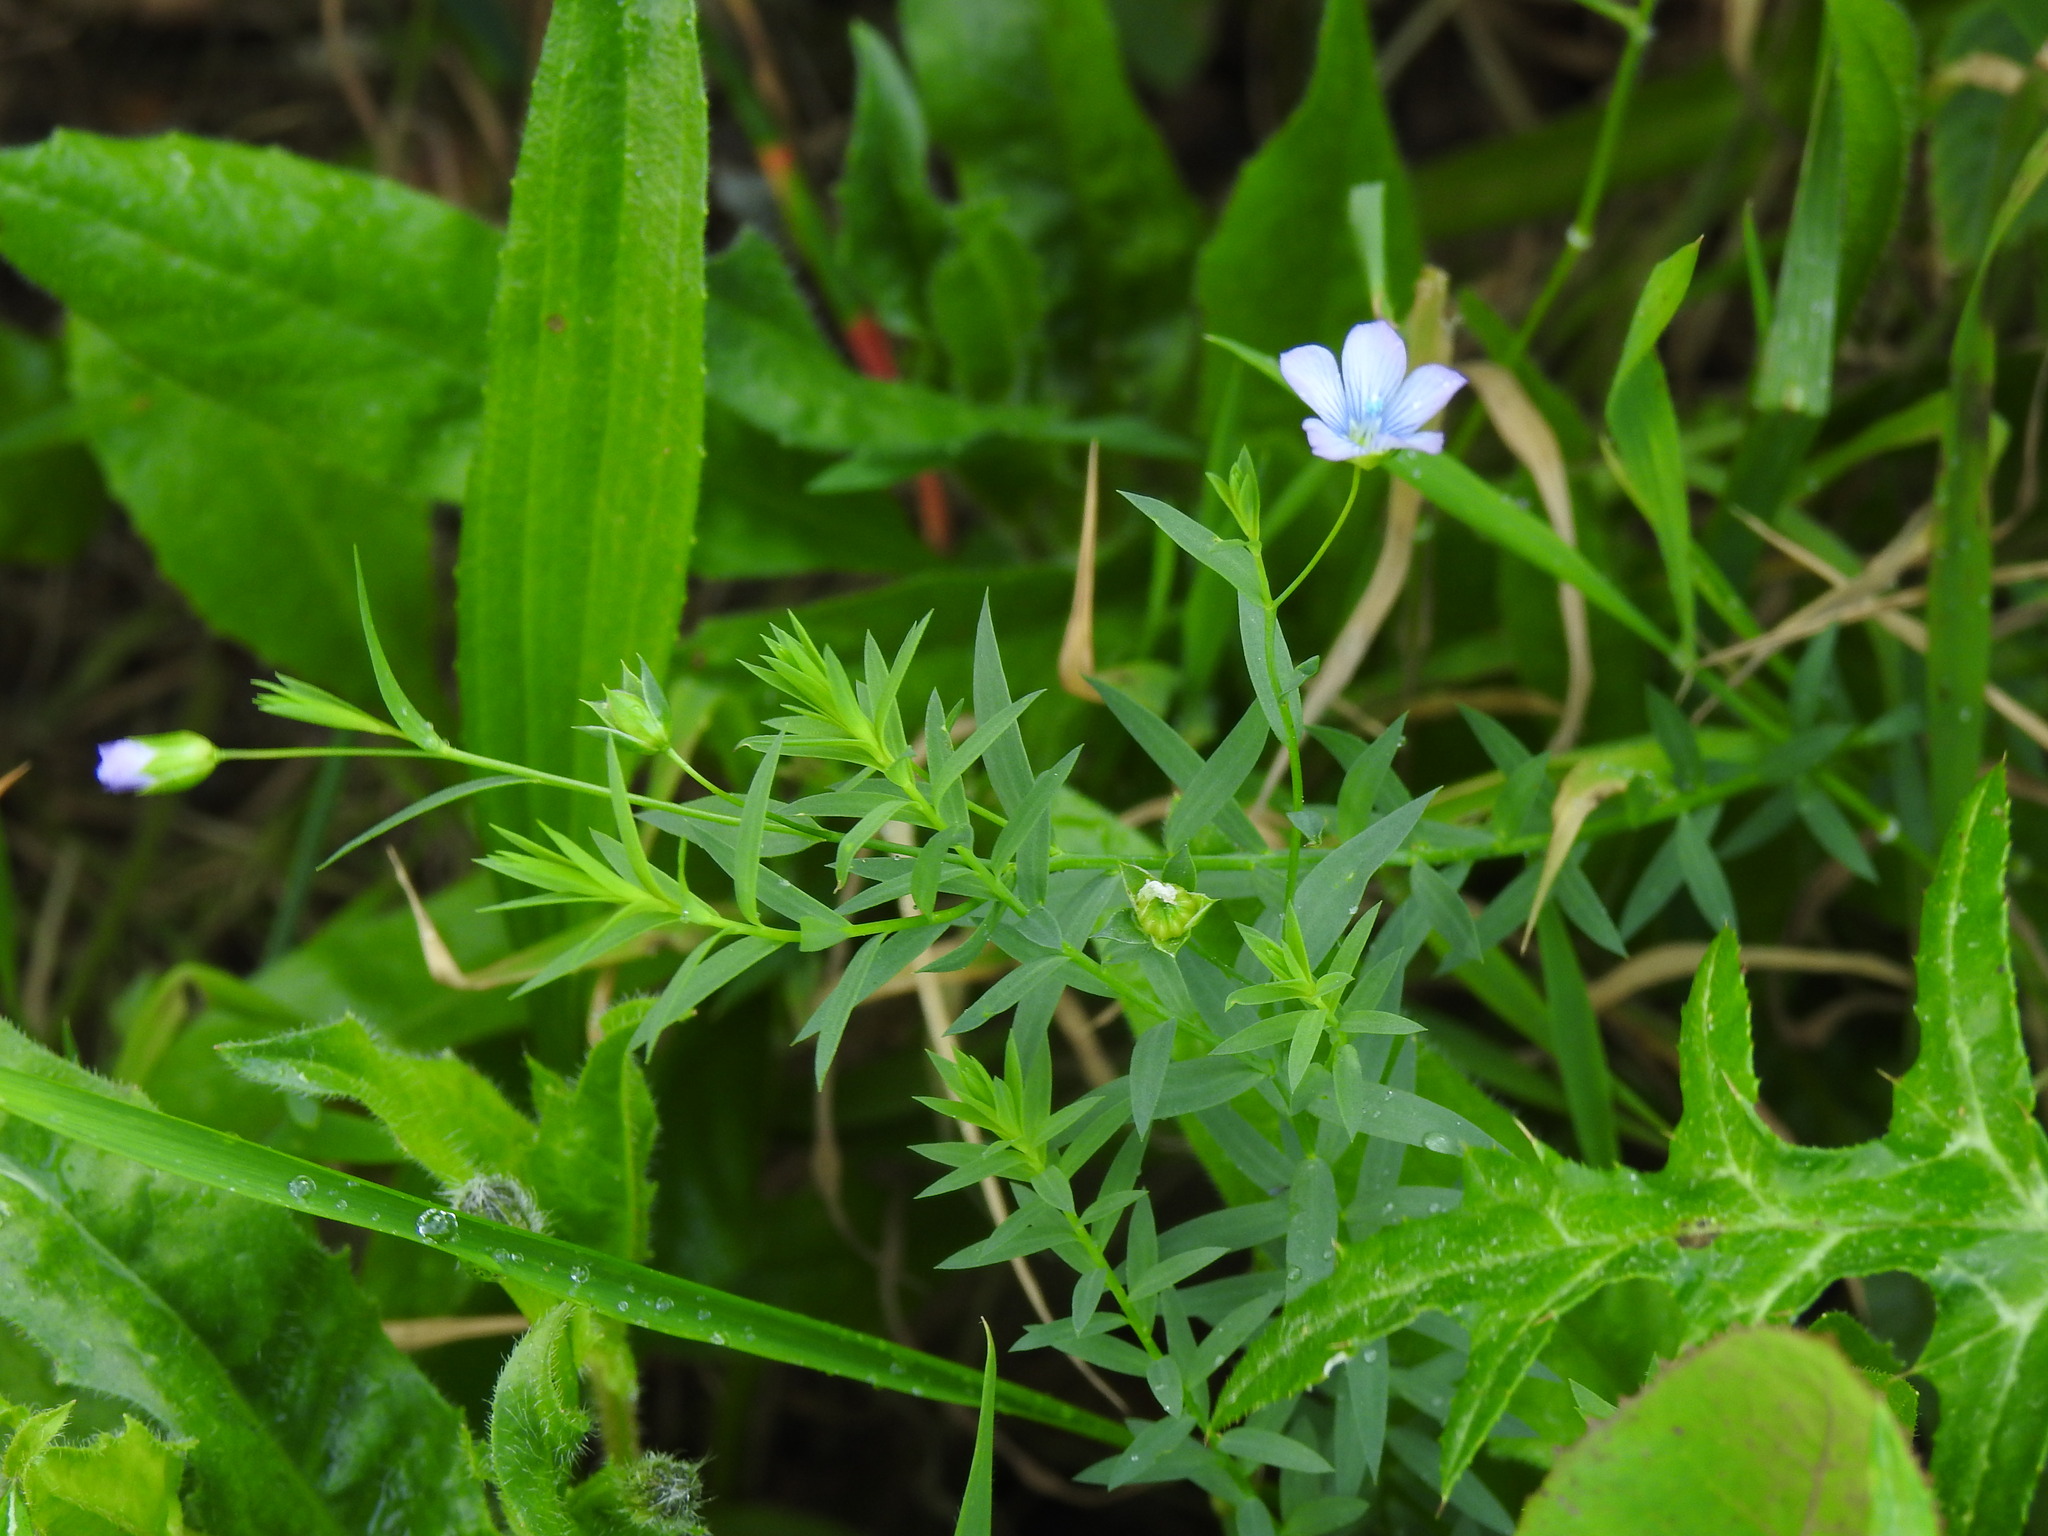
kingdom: Plantae
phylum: Tracheophyta
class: Magnoliopsida
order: Malpighiales
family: Linaceae
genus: Linum
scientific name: Linum bienne
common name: Pale flax
